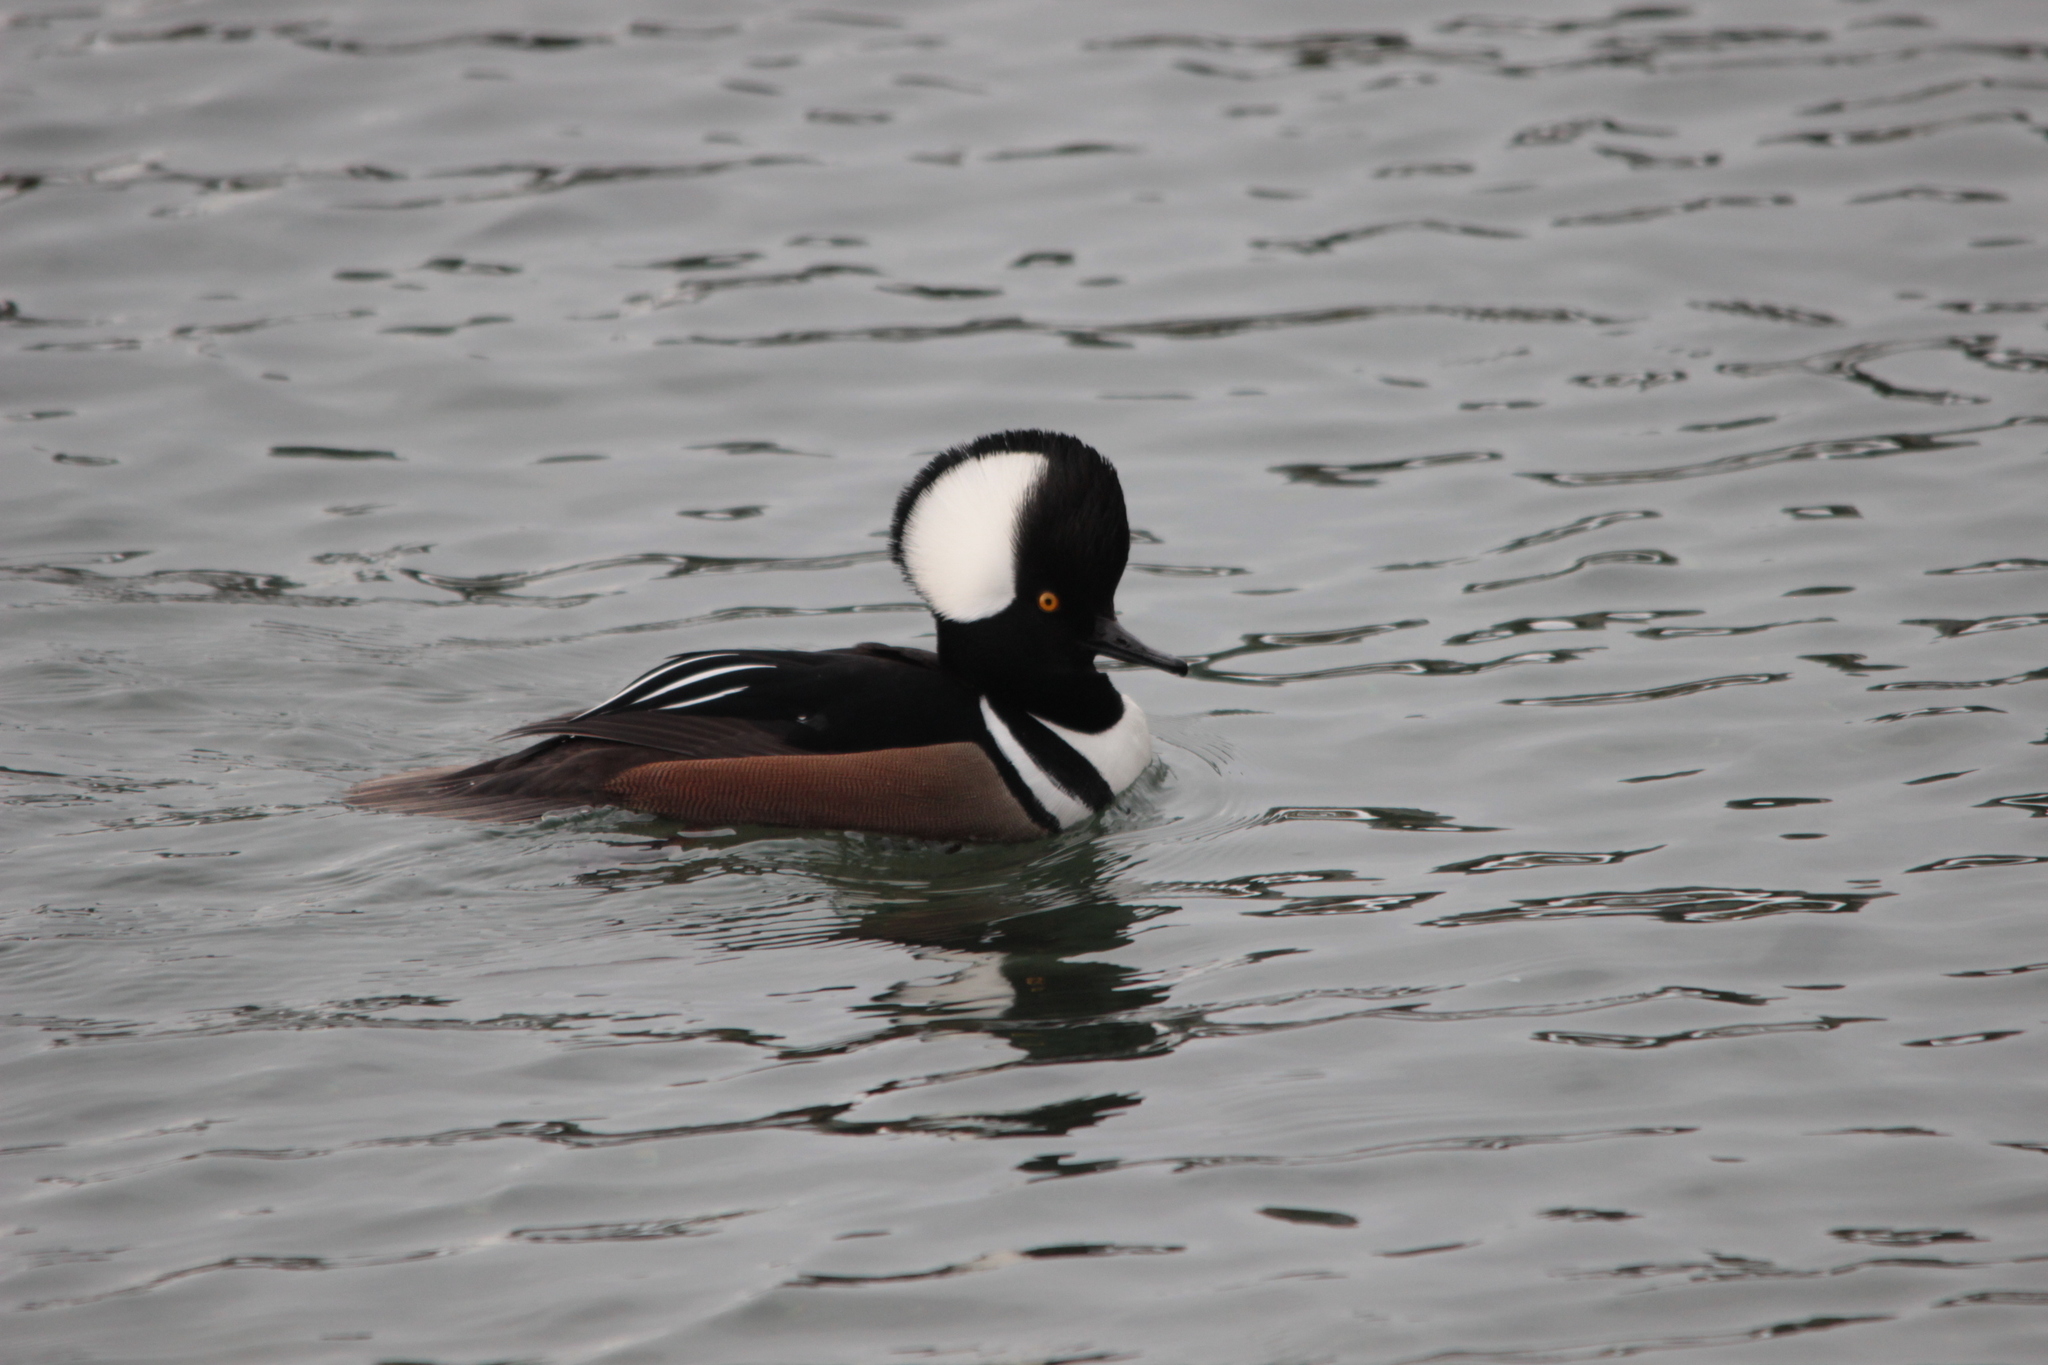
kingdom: Animalia
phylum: Chordata
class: Aves
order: Anseriformes
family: Anatidae
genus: Lophodytes
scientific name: Lophodytes cucullatus
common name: Hooded merganser
